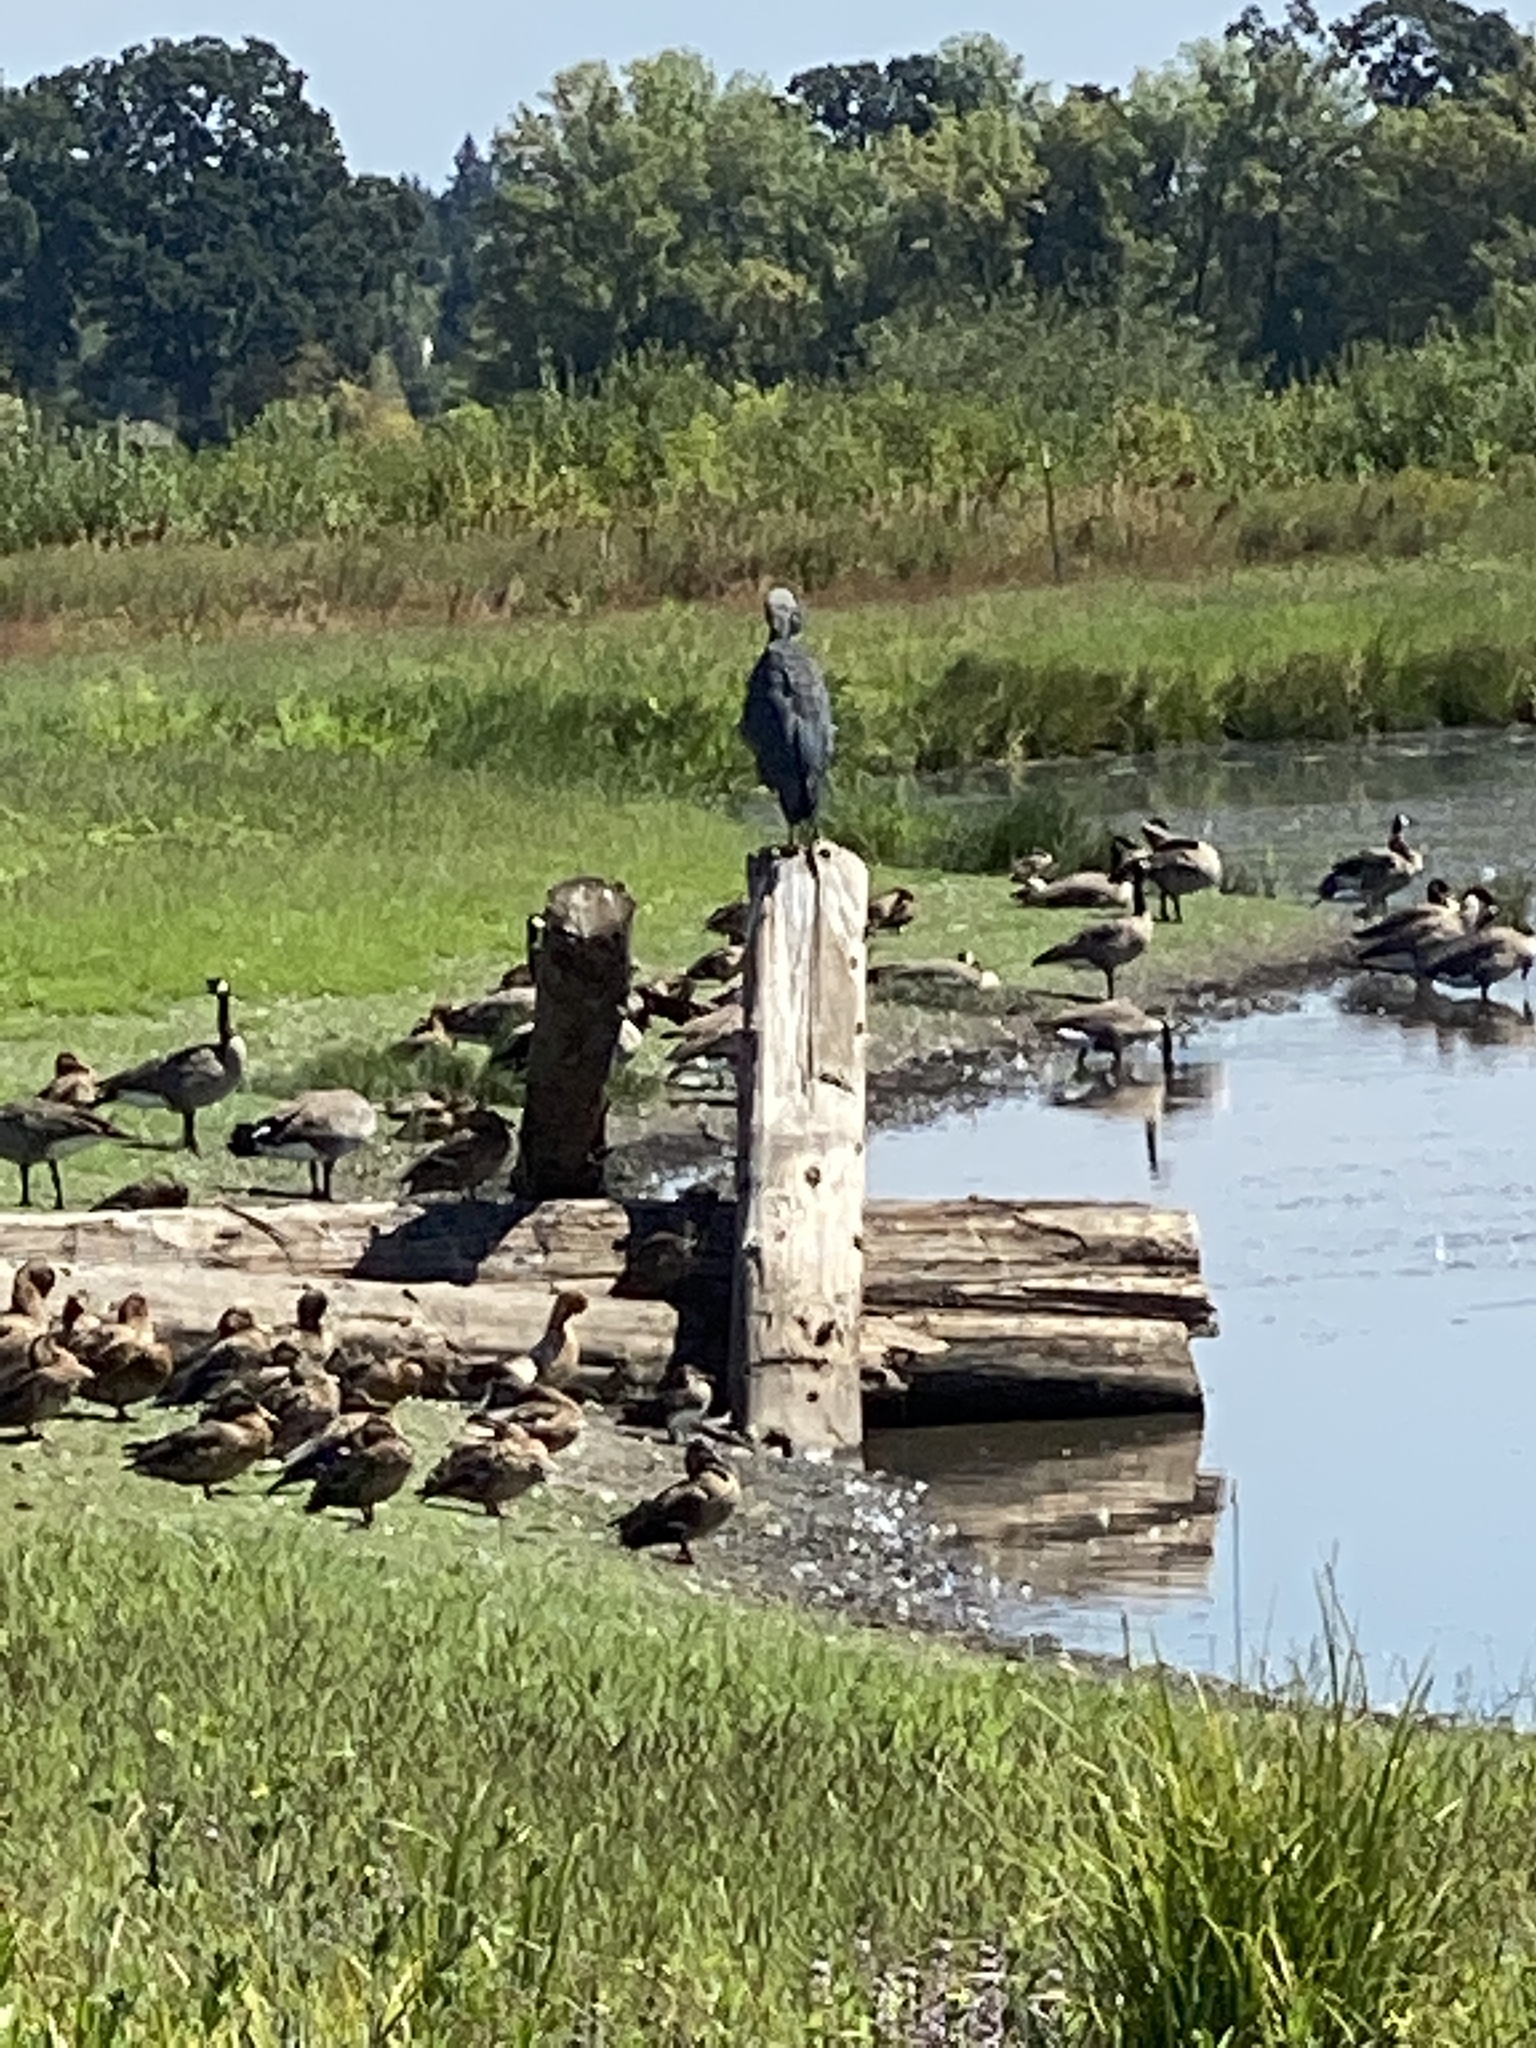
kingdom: Animalia
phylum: Chordata
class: Aves
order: Pelecaniformes
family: Ardeidae
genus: Ardea
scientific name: Ardea herodias
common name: Great blue heron
